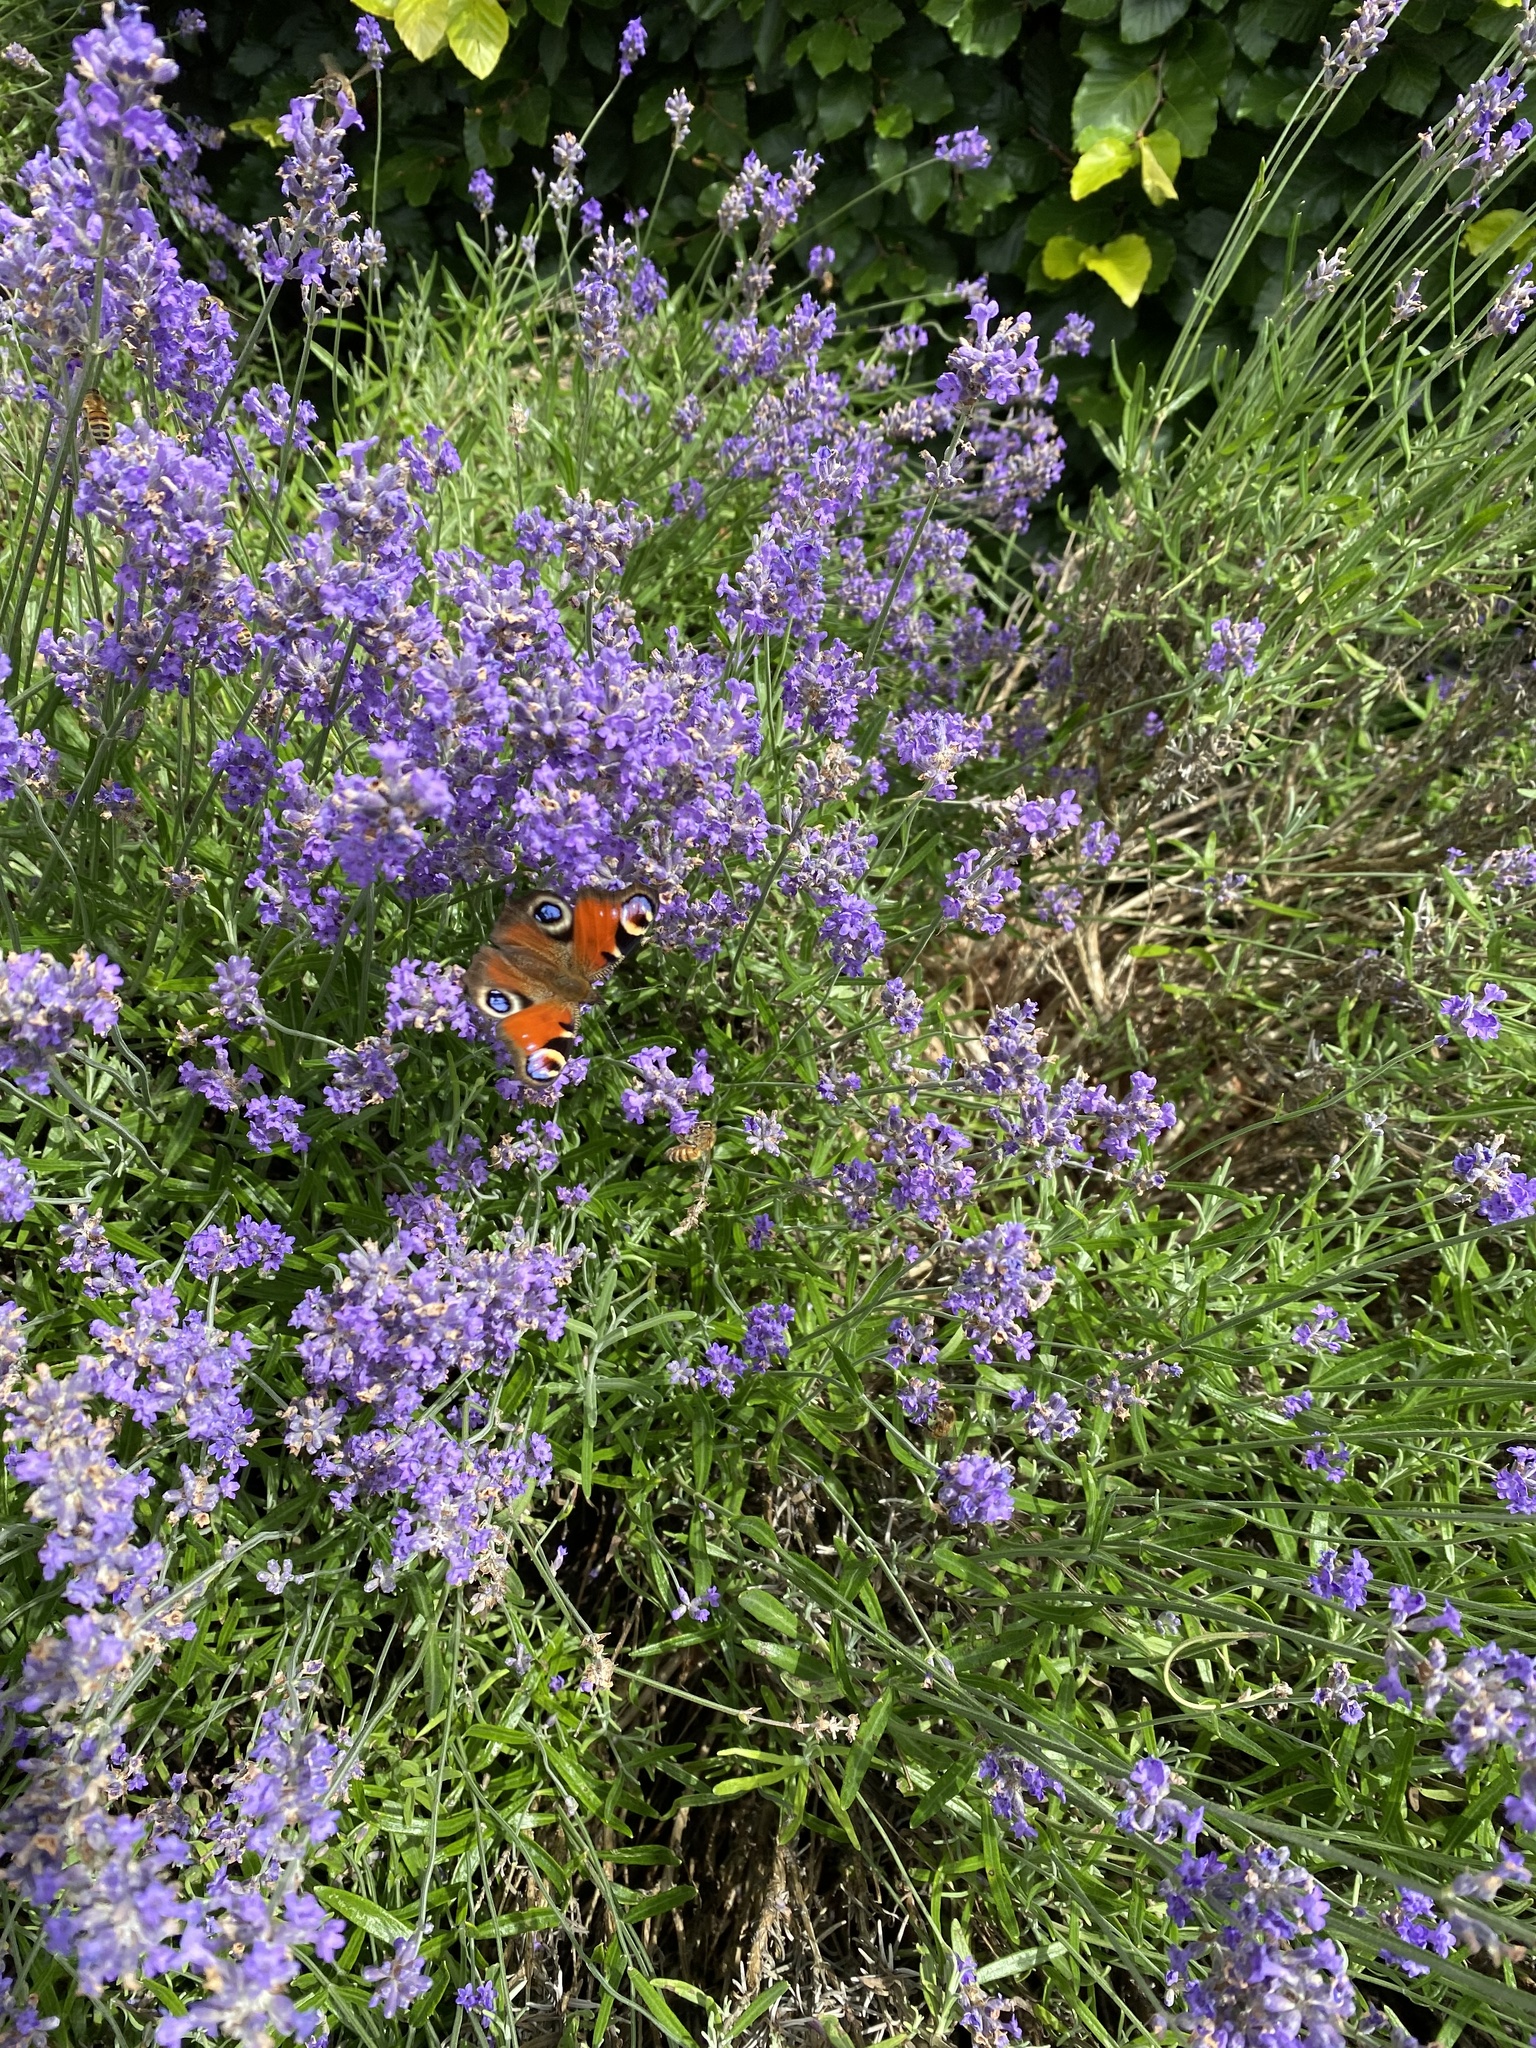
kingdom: Animalia
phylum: Arthropoda
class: Insecta
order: Lepidoptera
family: Nymphalidae
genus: Aglais
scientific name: Aglais io
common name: Peacock
